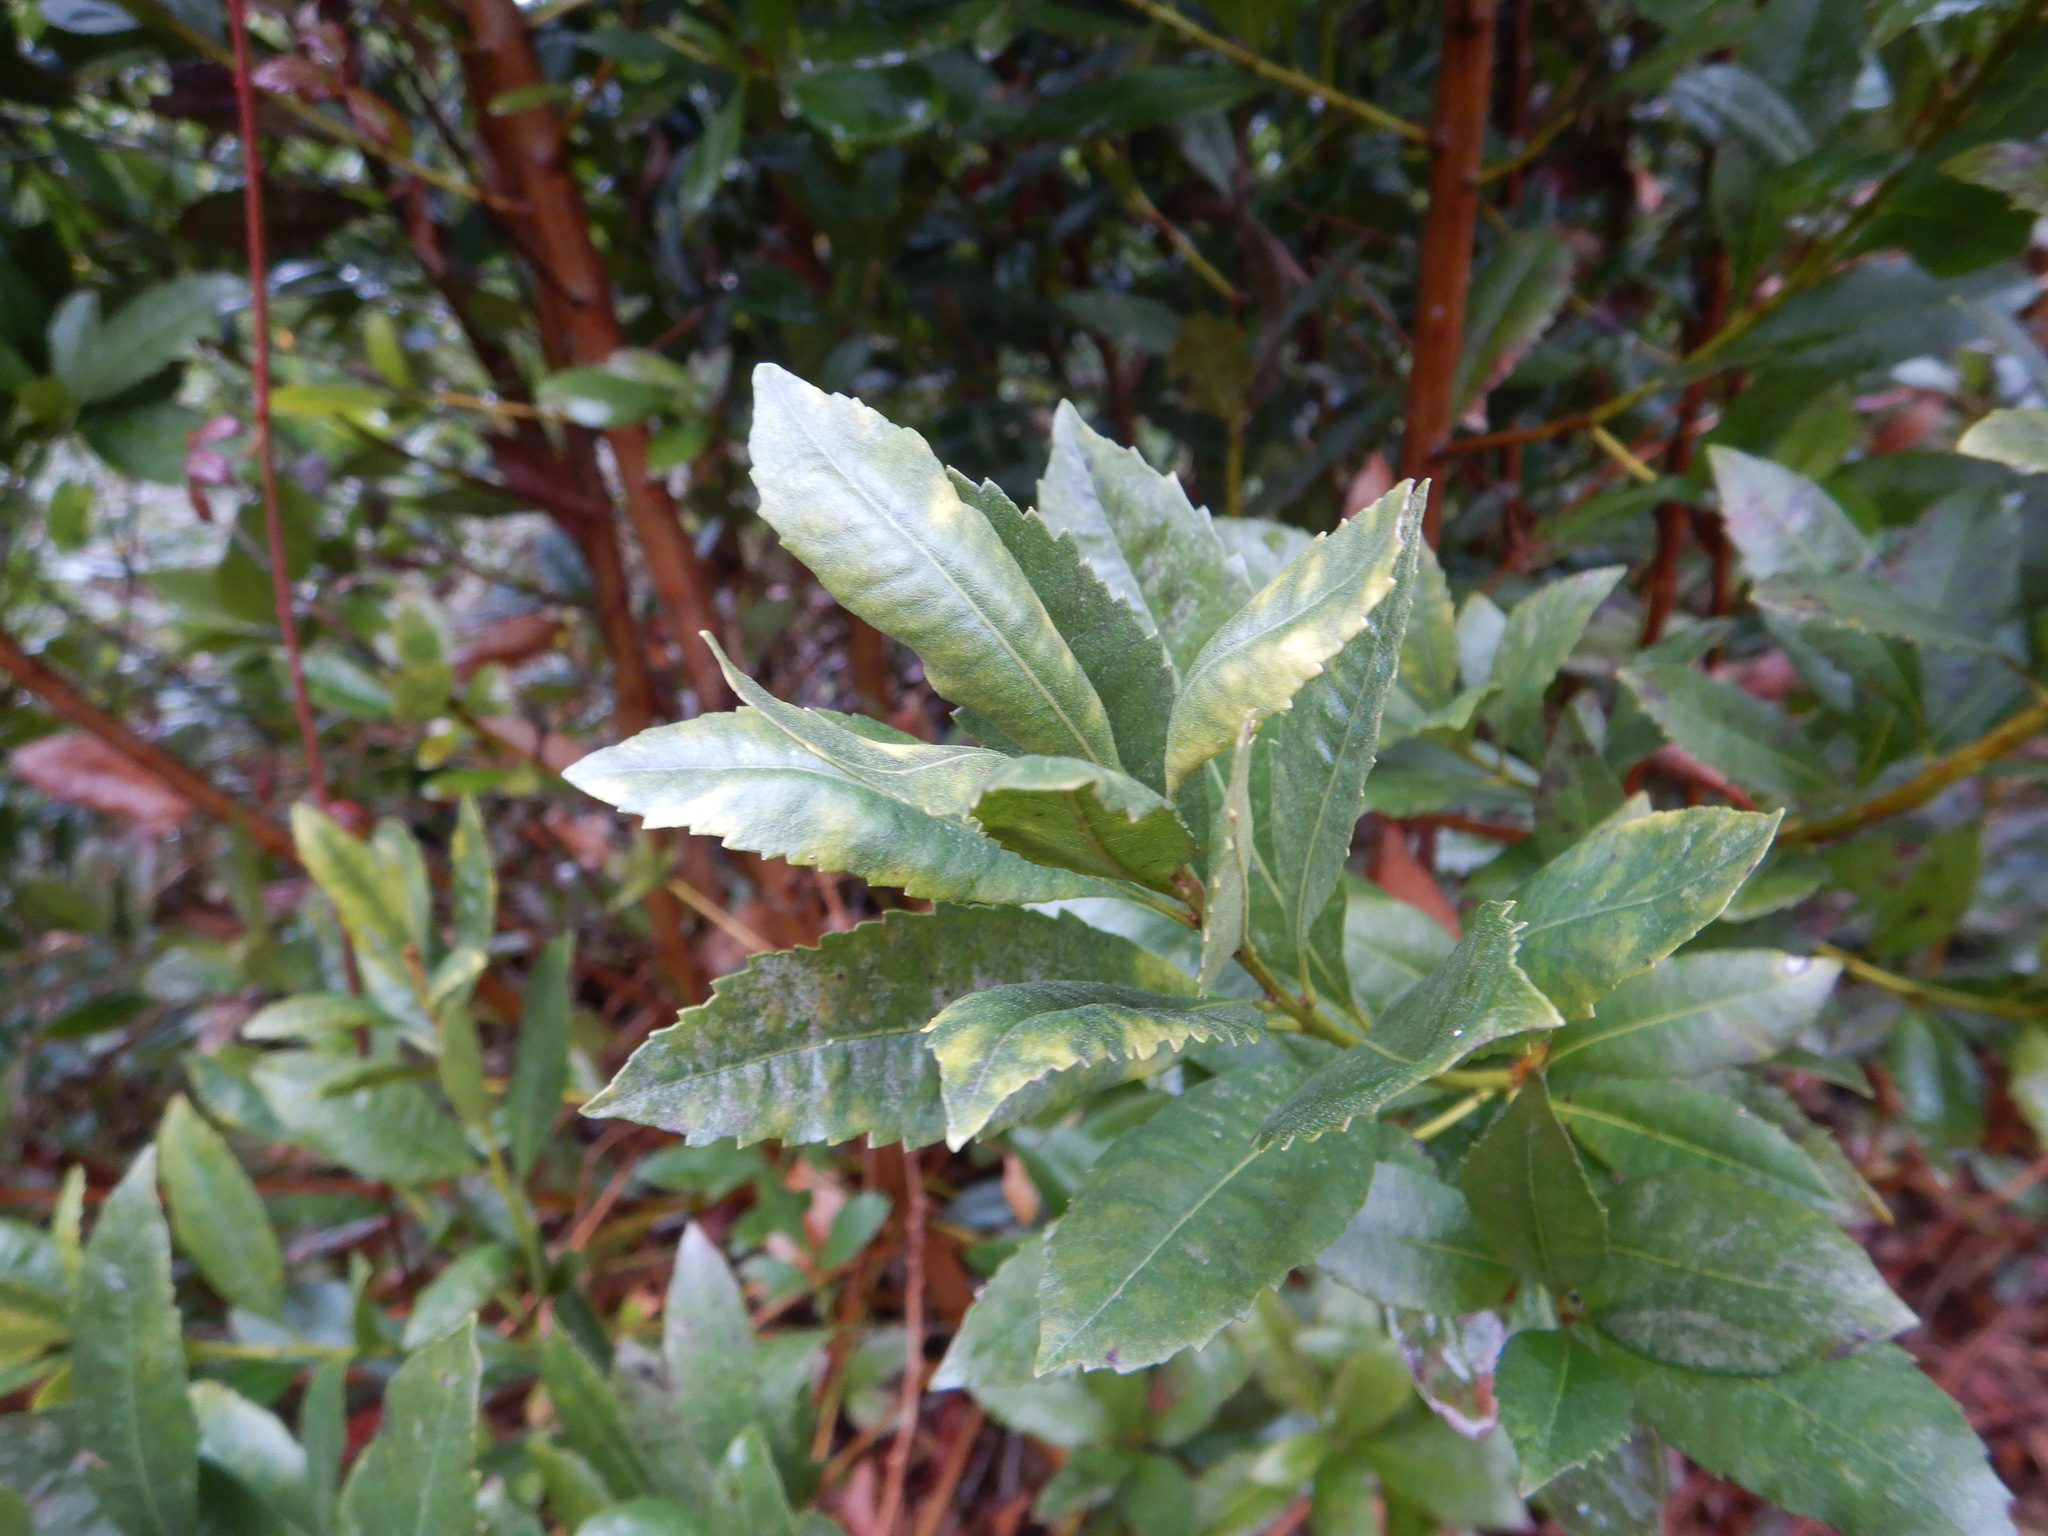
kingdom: Plantae
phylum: Tracheophyta
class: Magnoliopsida
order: Fagales
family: Myricaceae
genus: Morella
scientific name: Morella faya
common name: Firetree
